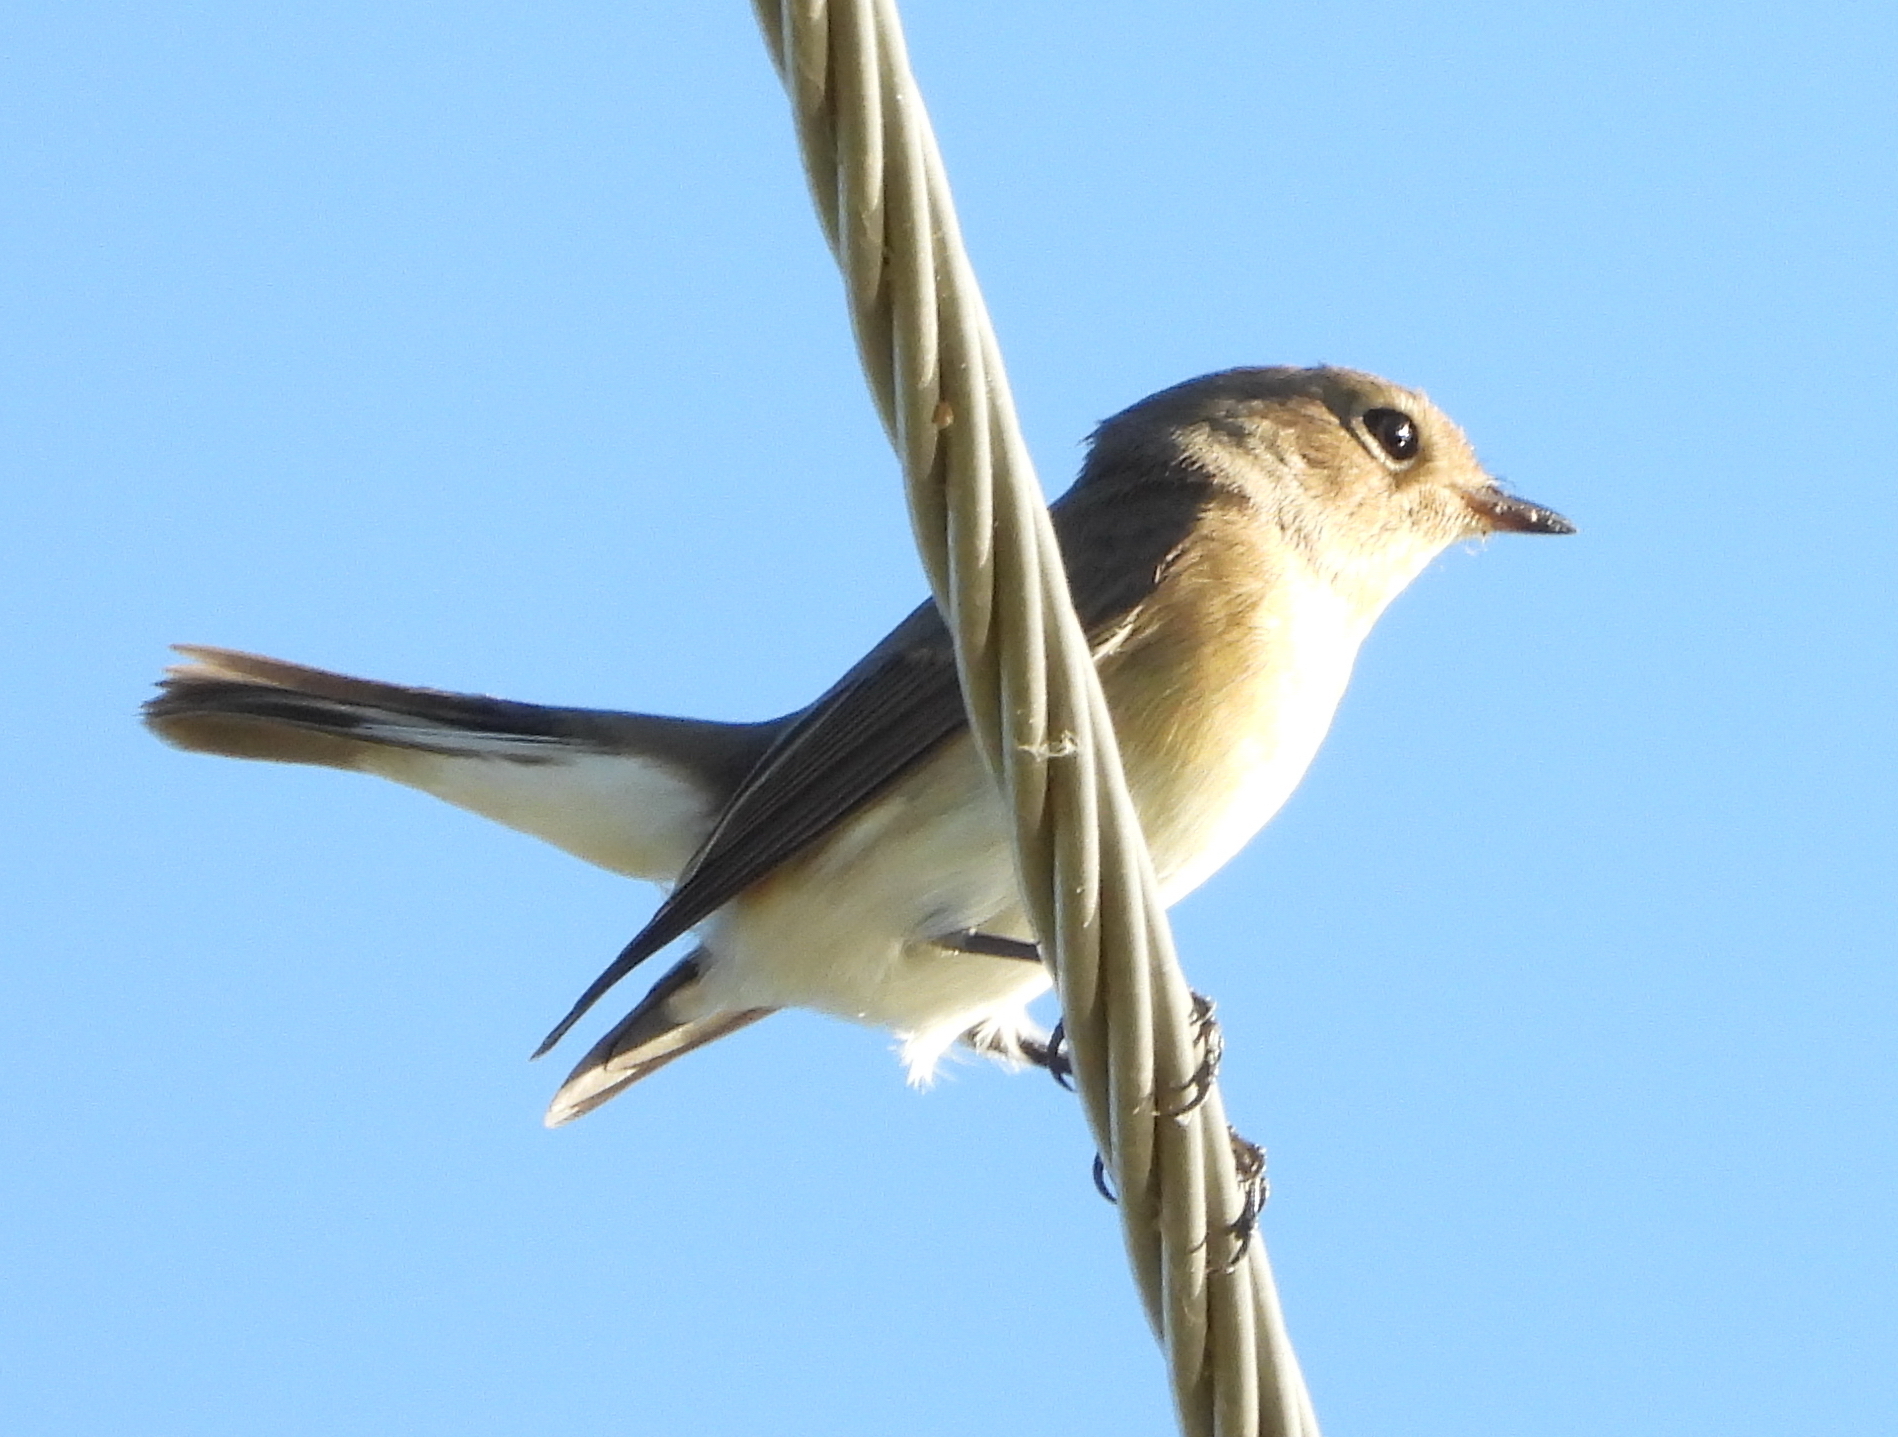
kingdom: Animalia
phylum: Chordata
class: Aves
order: Passeriformes
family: Muscicapidae
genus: Ficedula
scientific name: Ficedula parva
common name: Red-breasted flycatcher
